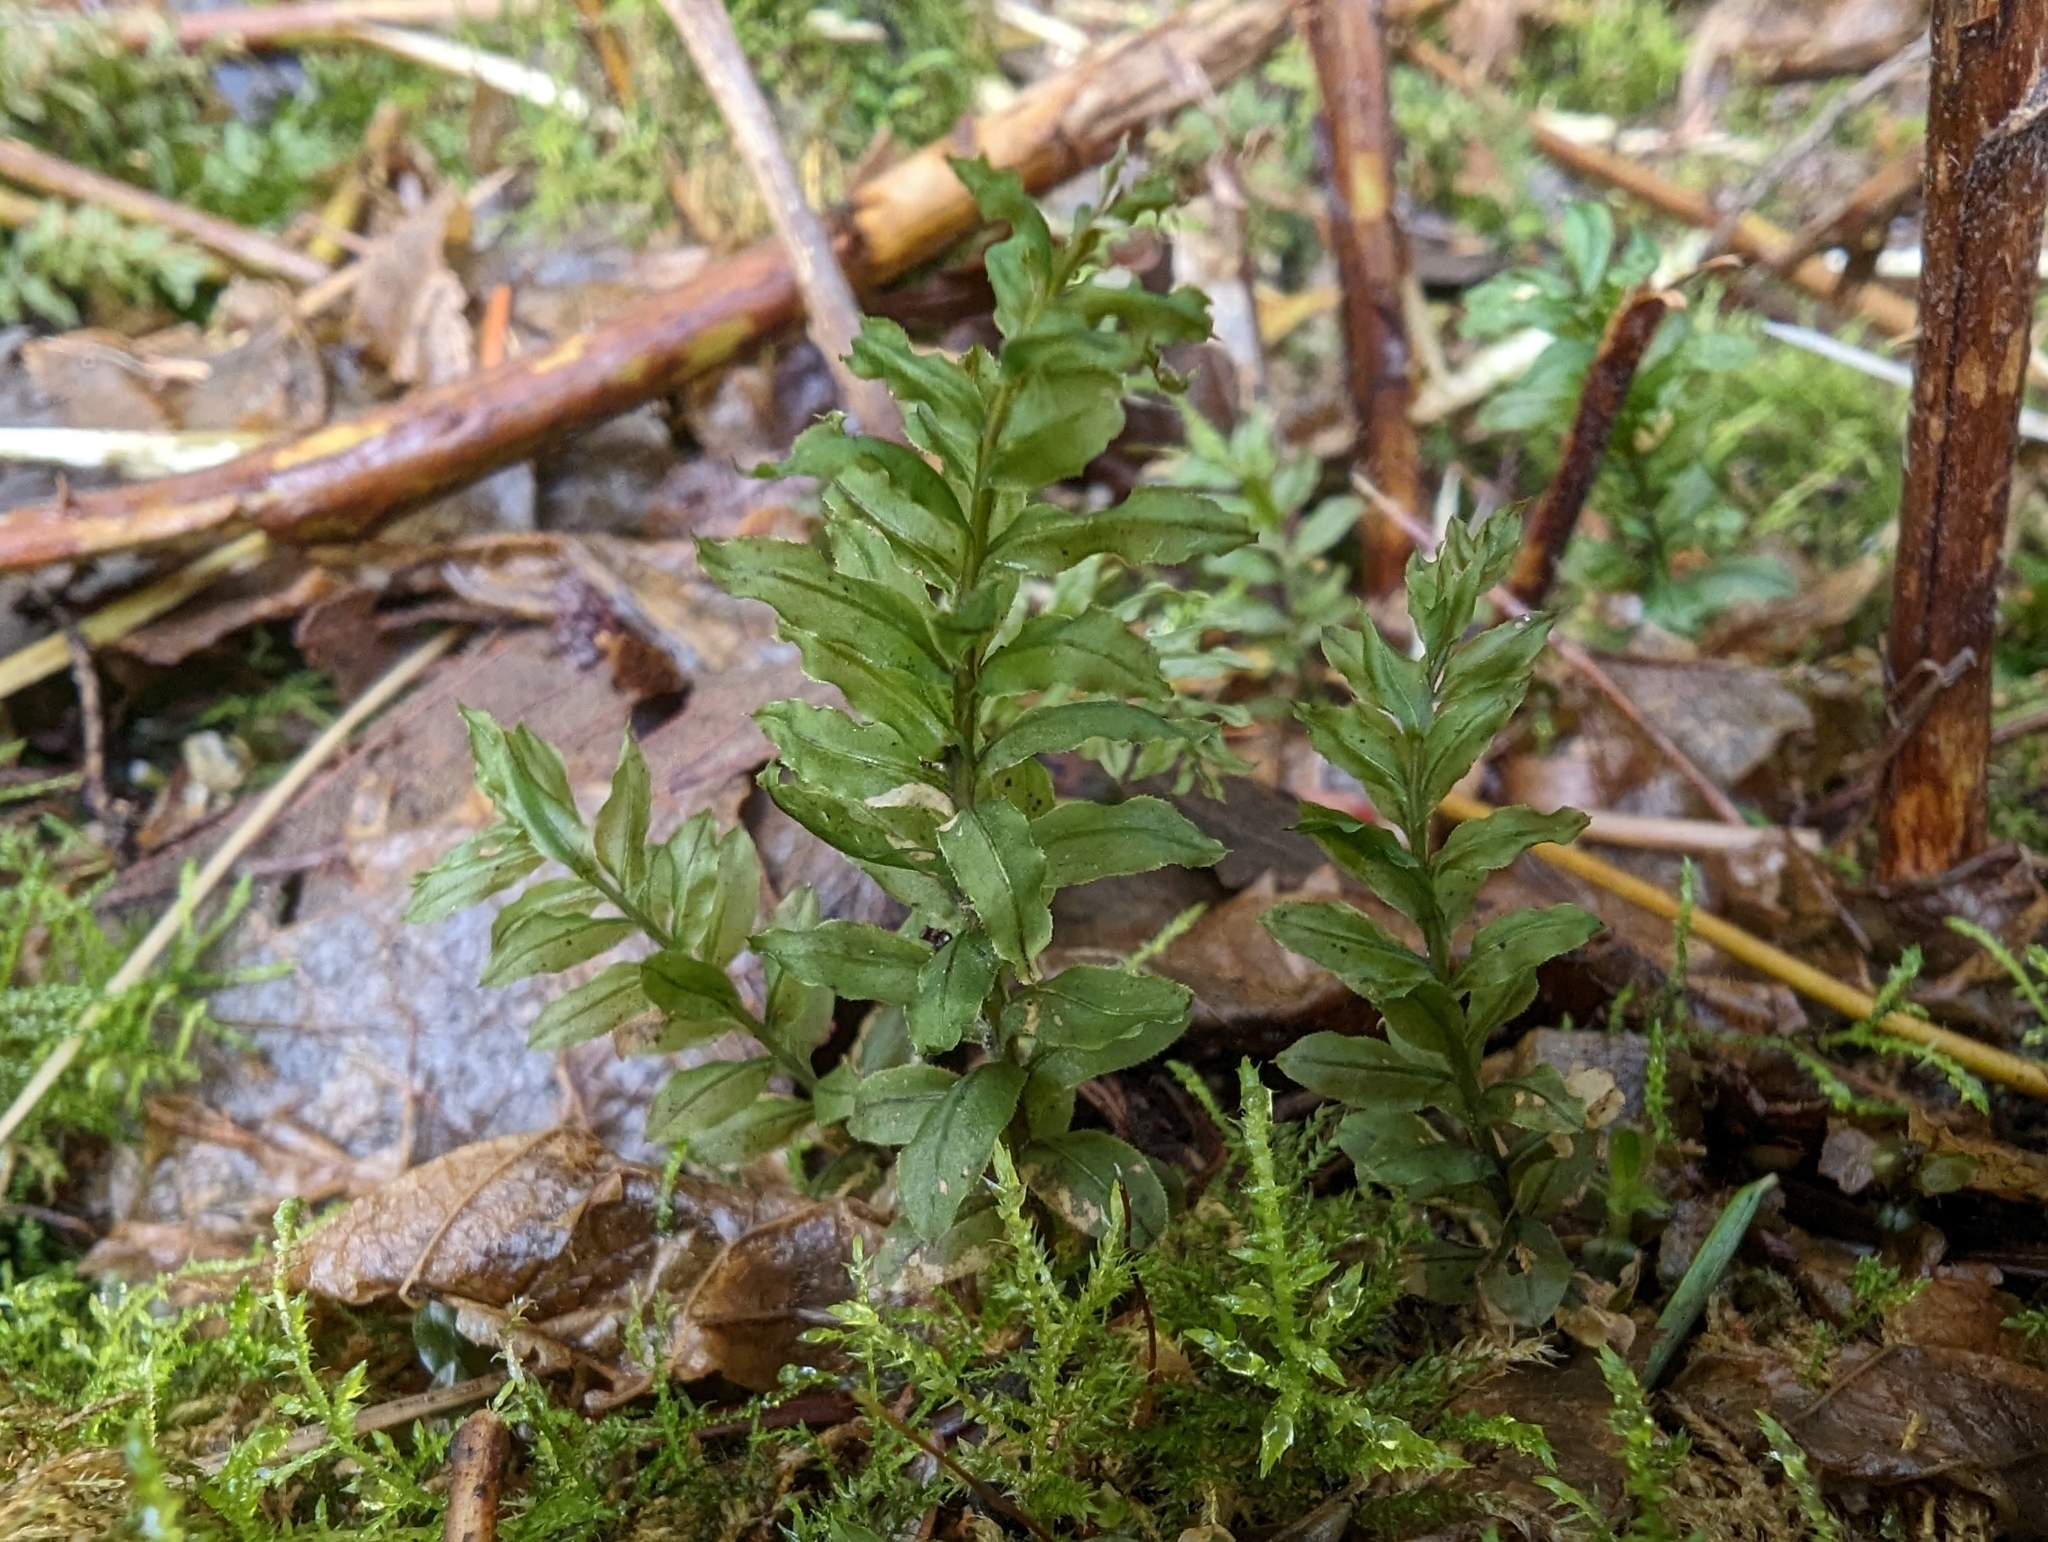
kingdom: Plantae
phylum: Bryophyta
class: Bryopsida
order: Bryales
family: Mniaceae
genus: Plagiomnium
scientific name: Plagiomnium insigne
